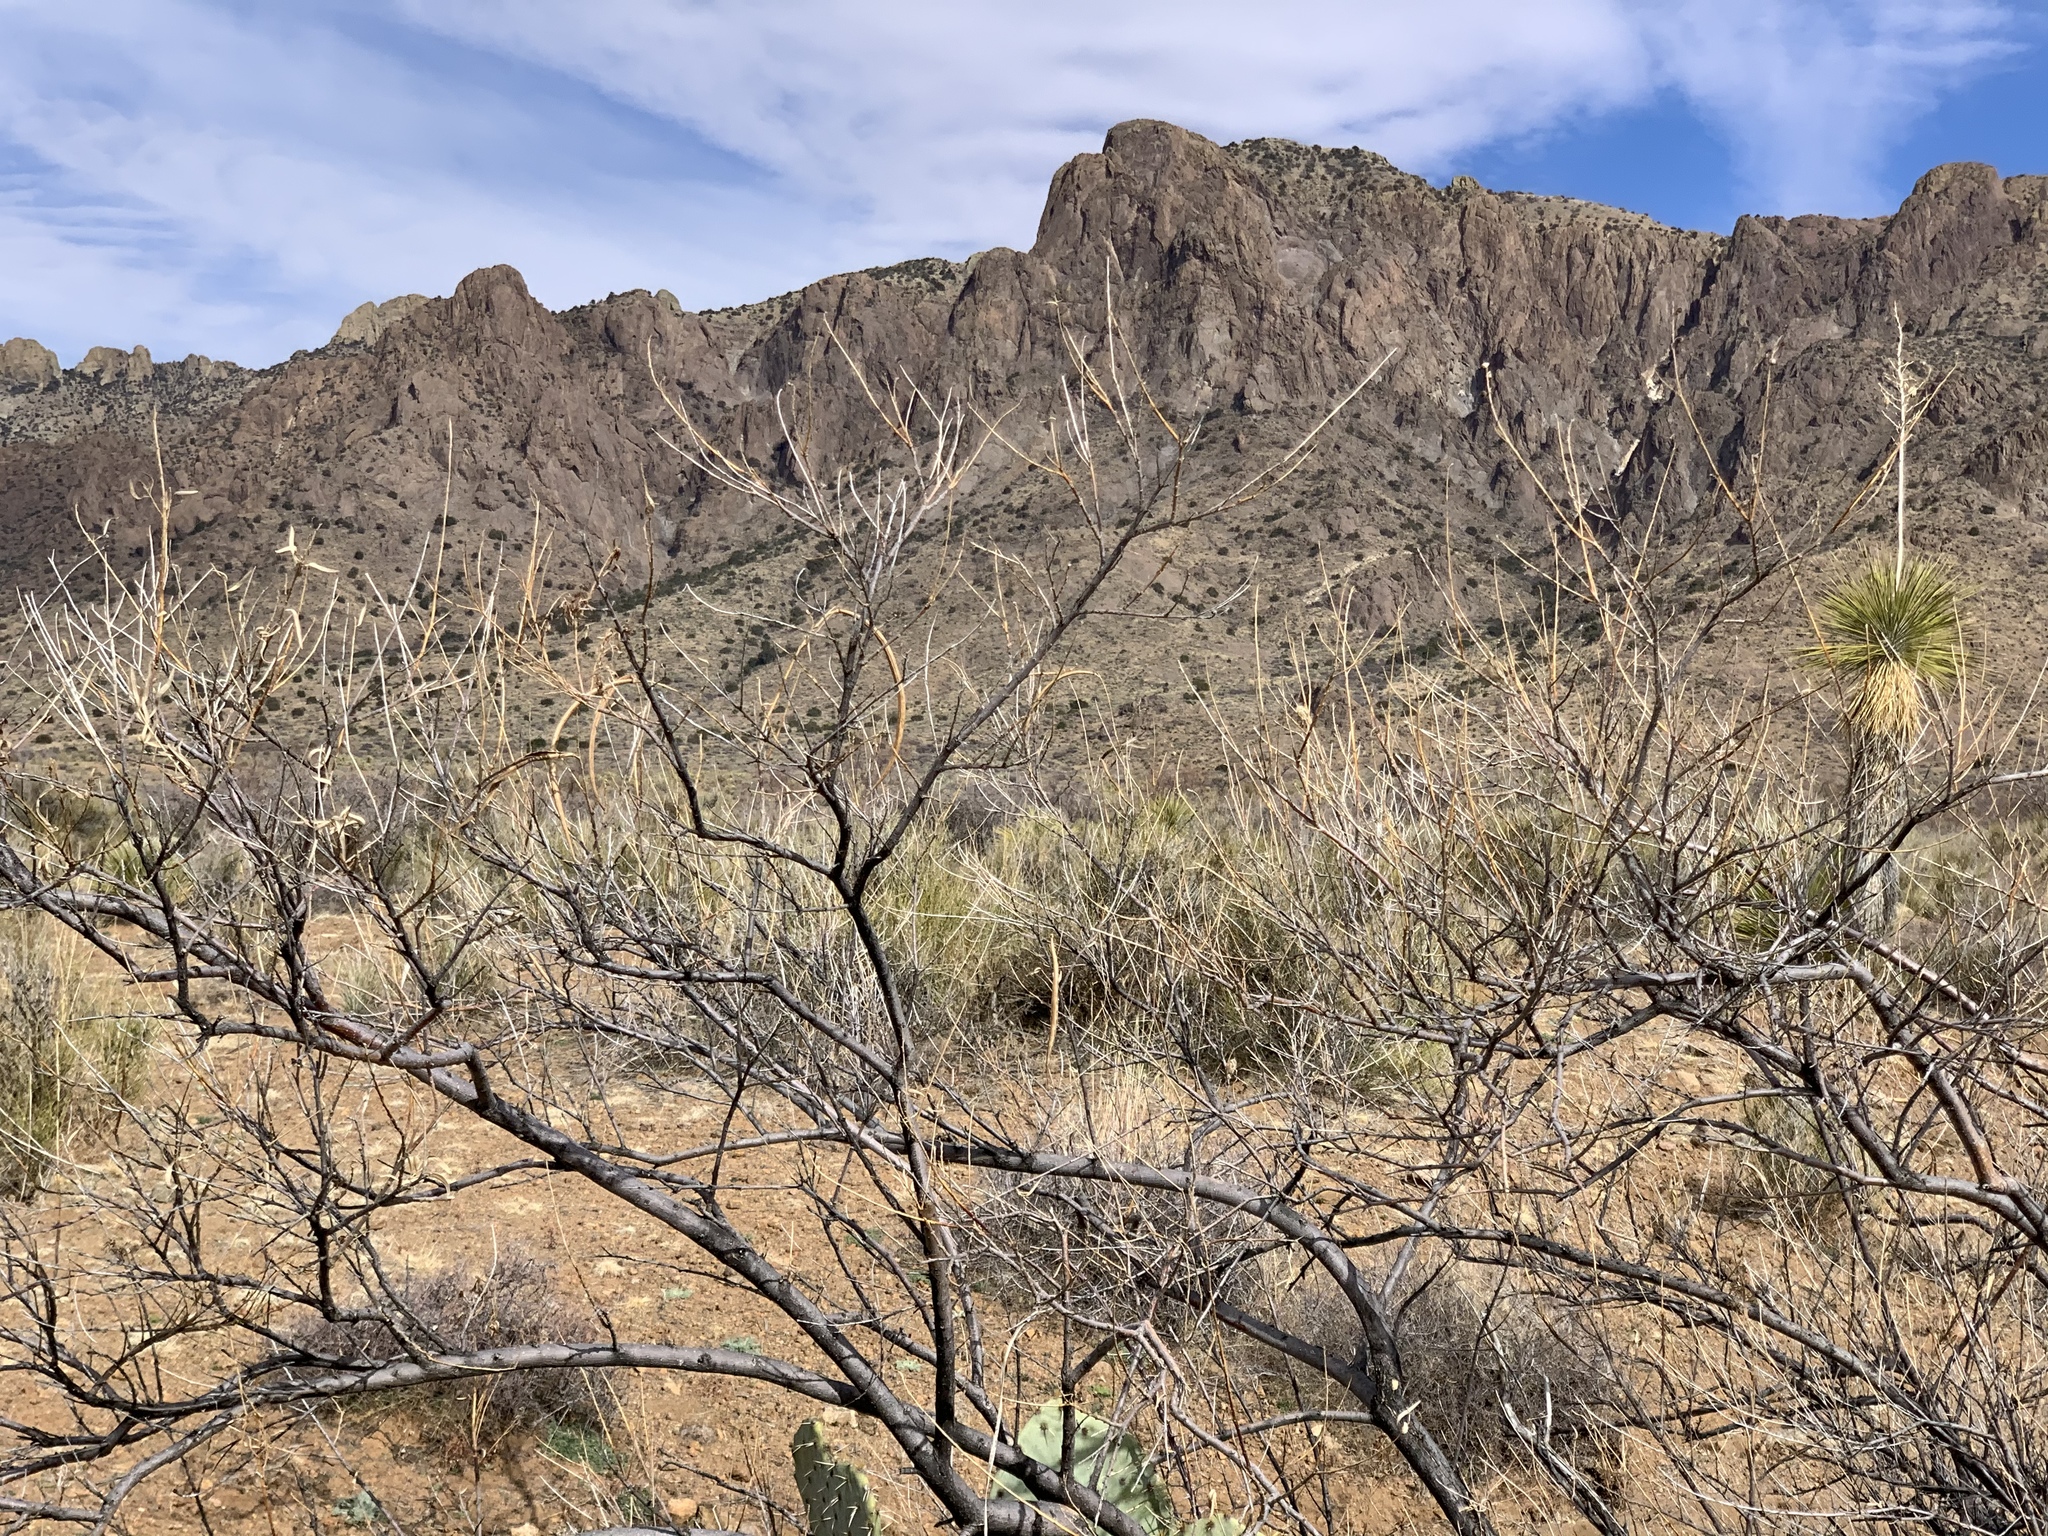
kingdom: Plantae
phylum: Tracheophyta
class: Magnoliopsida
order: Lamiales
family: Bignoniaceae
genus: Chilopsis
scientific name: Chilopsis linearis
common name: Desert-willow
